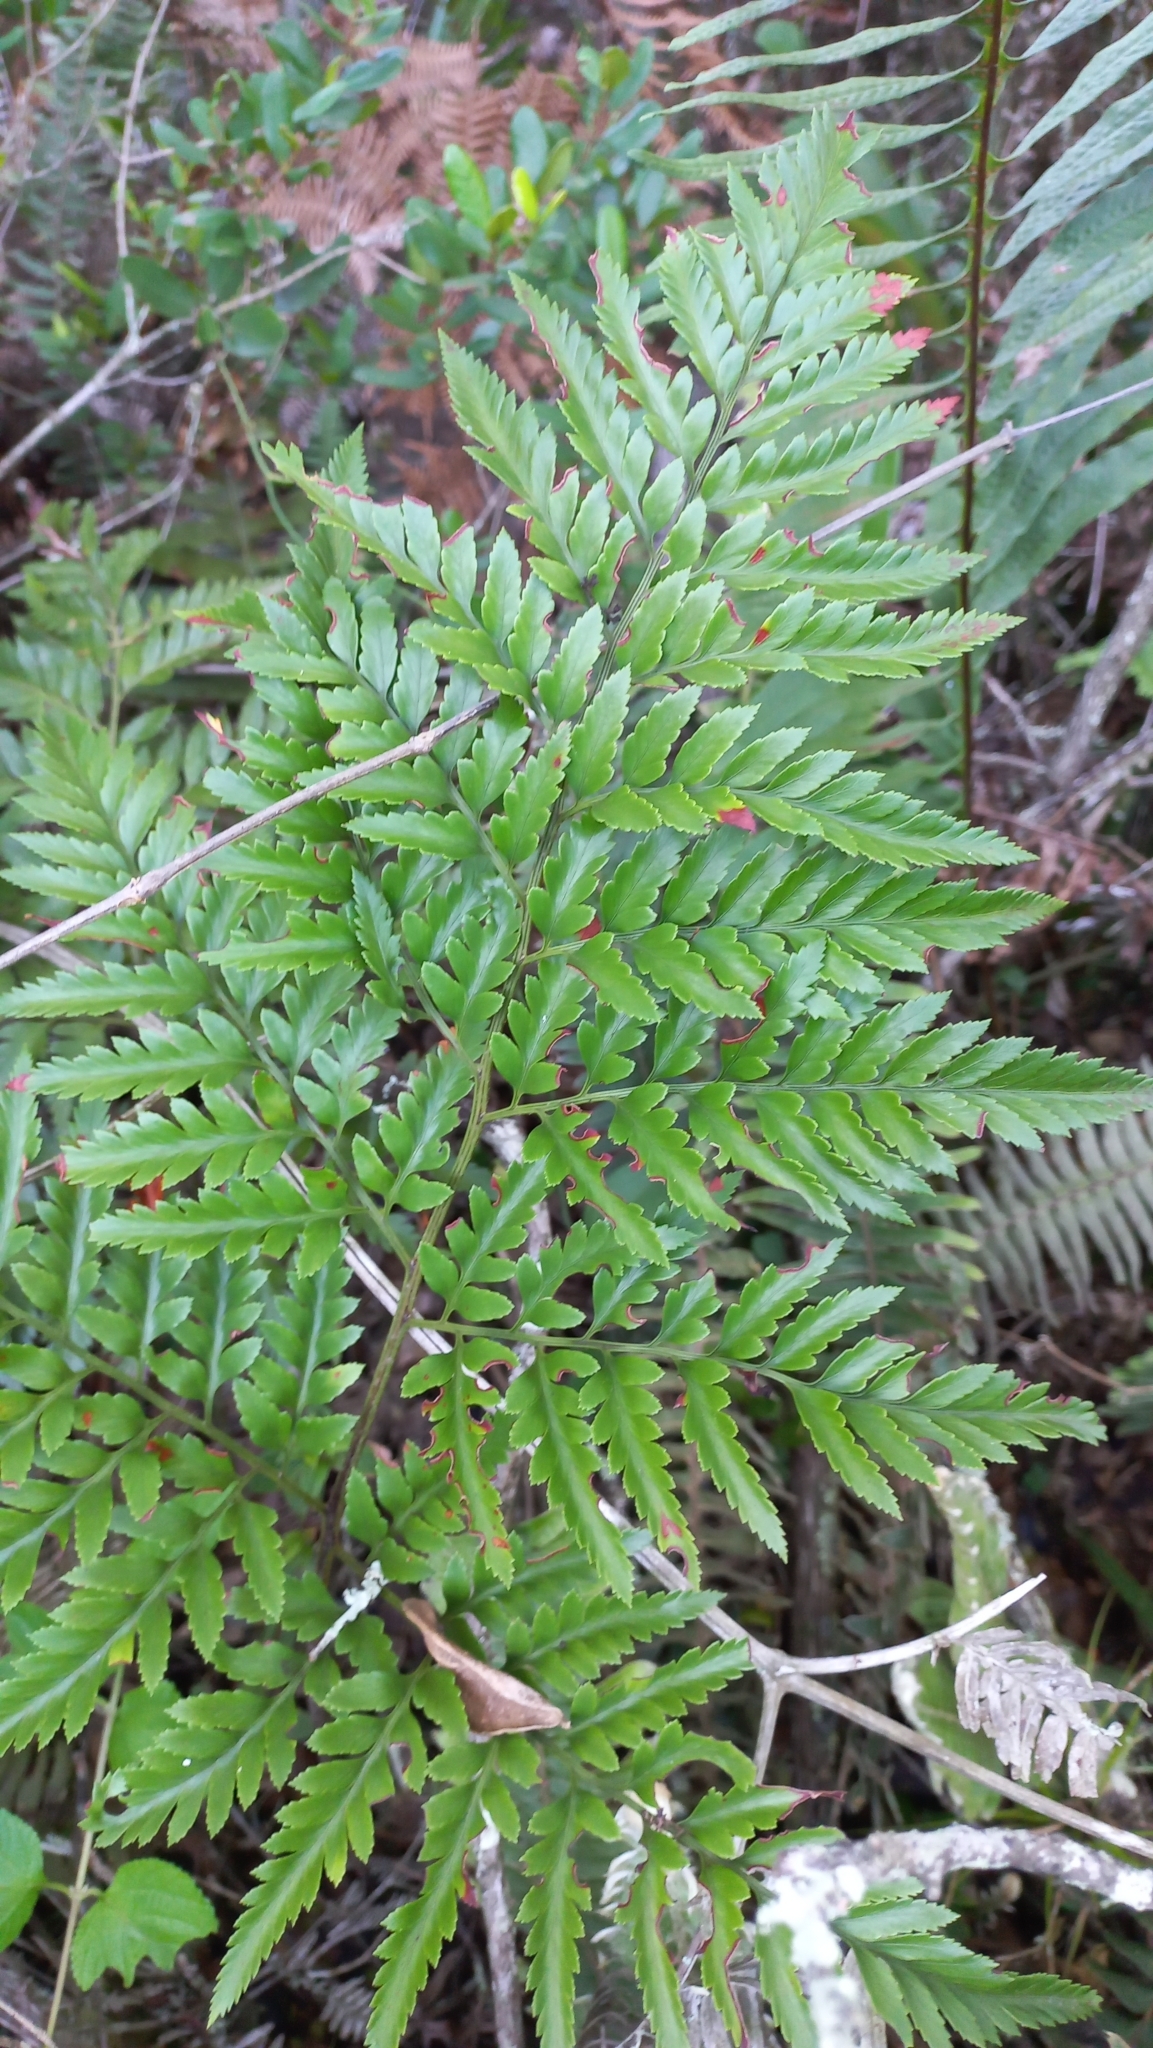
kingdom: Plantae
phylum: Tracheophyta
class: Polypodiopsida
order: Polypodiales
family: Dryopteridaceae
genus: Rumohra
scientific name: Rumohra adiantiformis
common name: Leather fern
